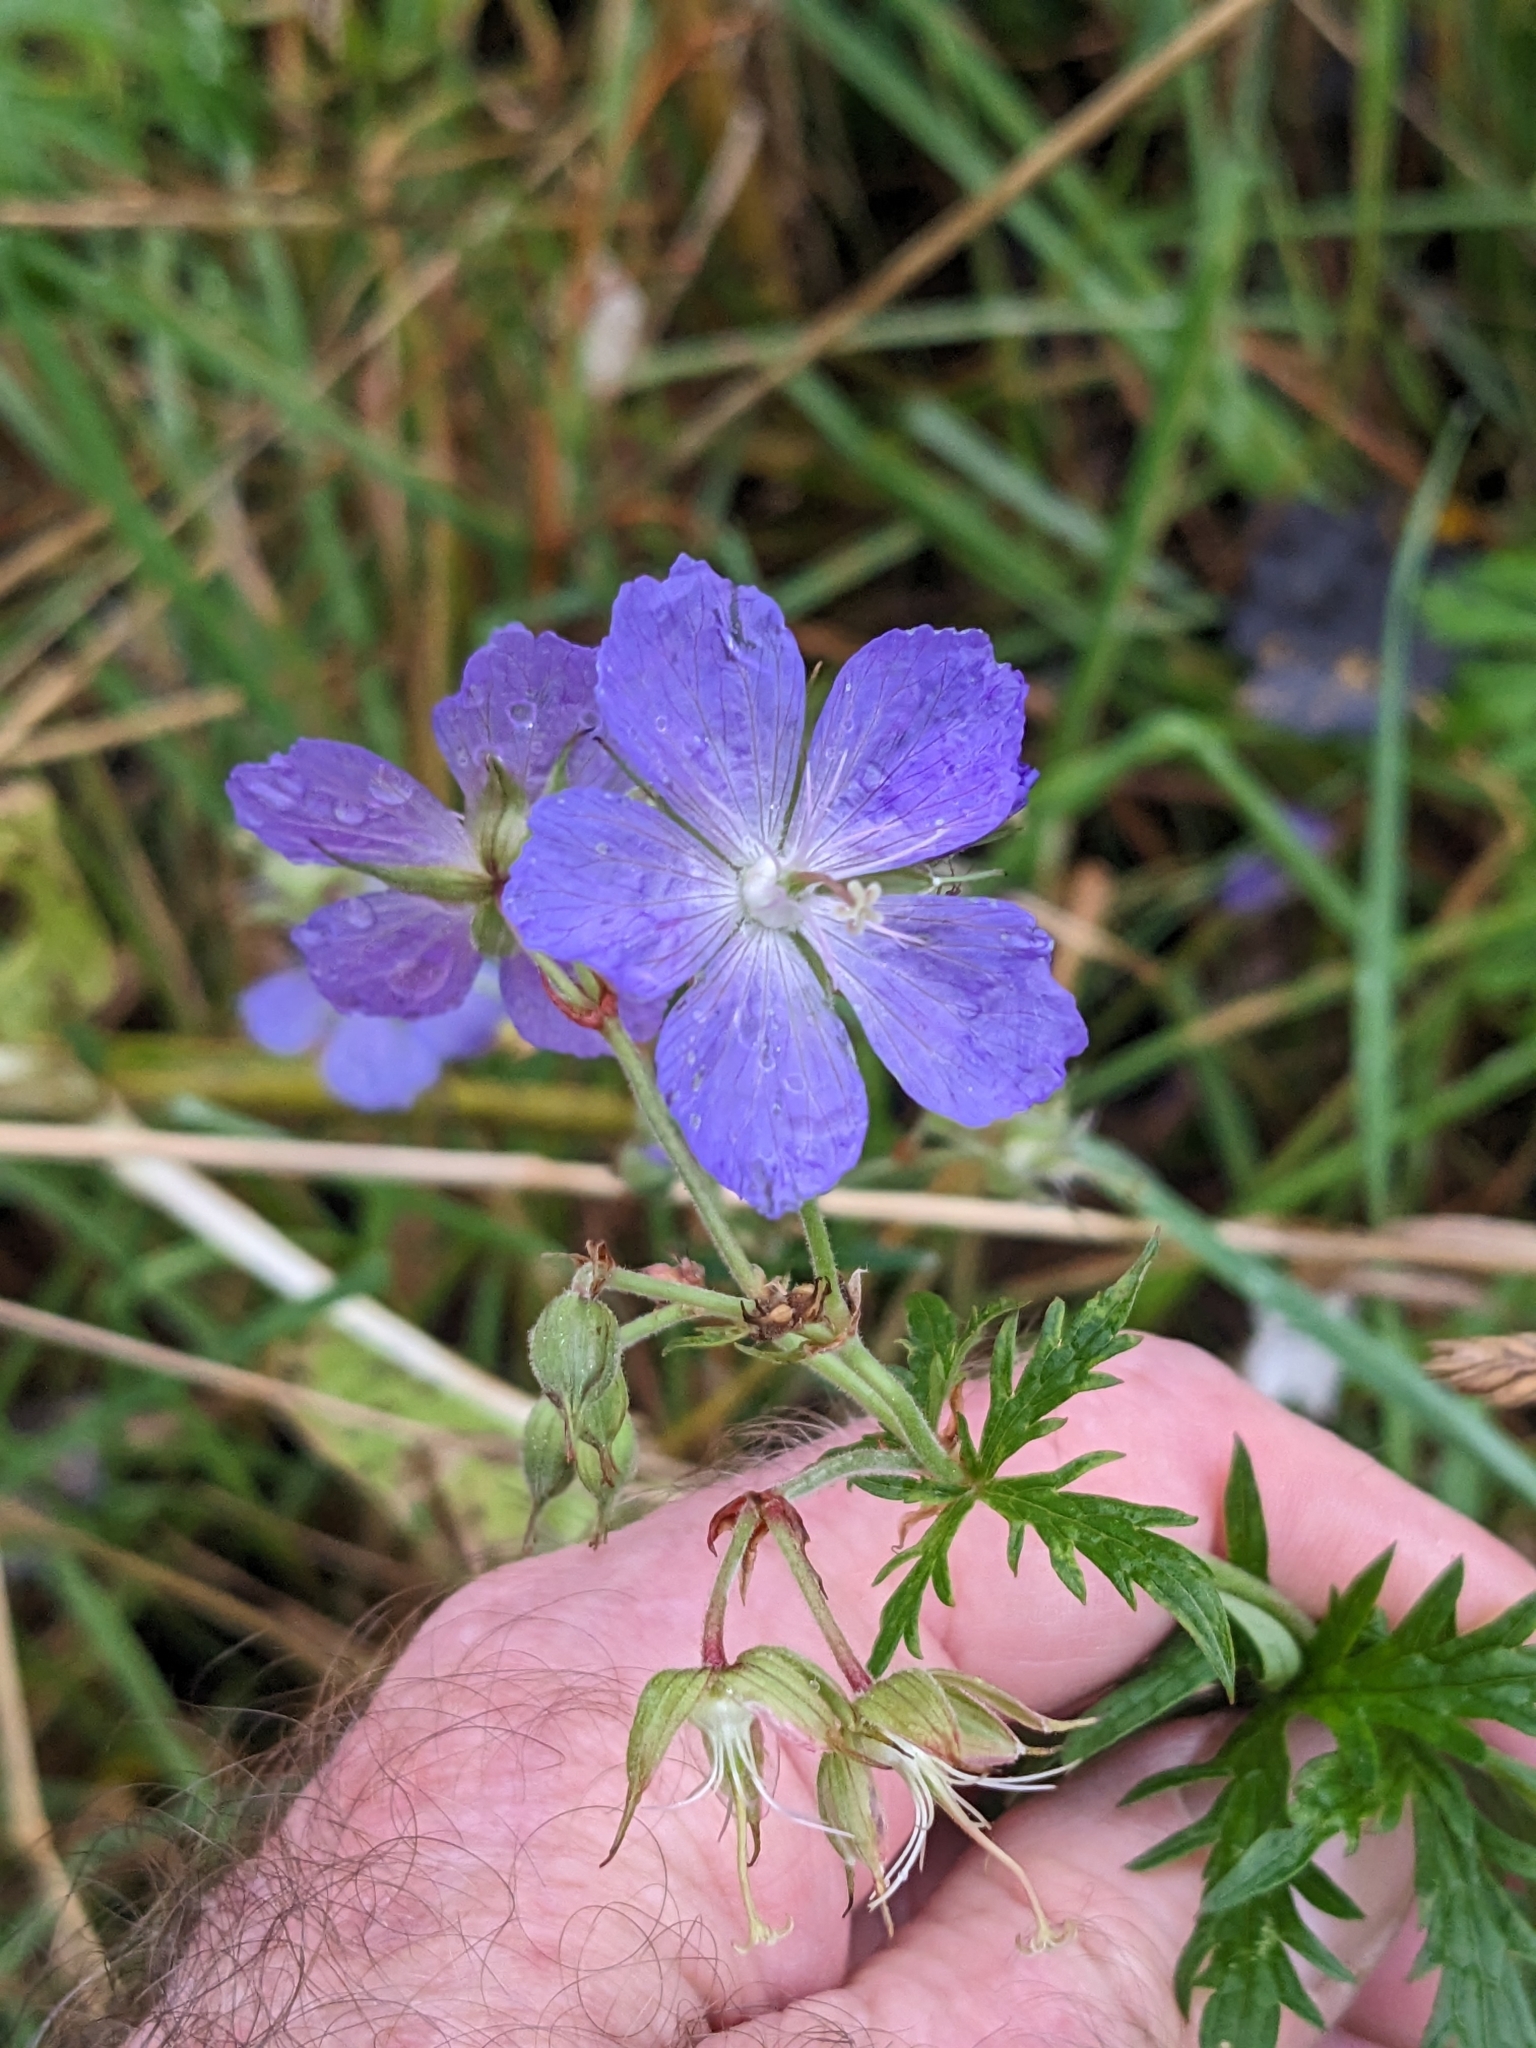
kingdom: Plantae
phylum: Tracheophyta
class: Magnoliopsida
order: Geraniales
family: Geraniaceae
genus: Geranium
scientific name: Geranium pratense
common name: Meadow crane's-bill
